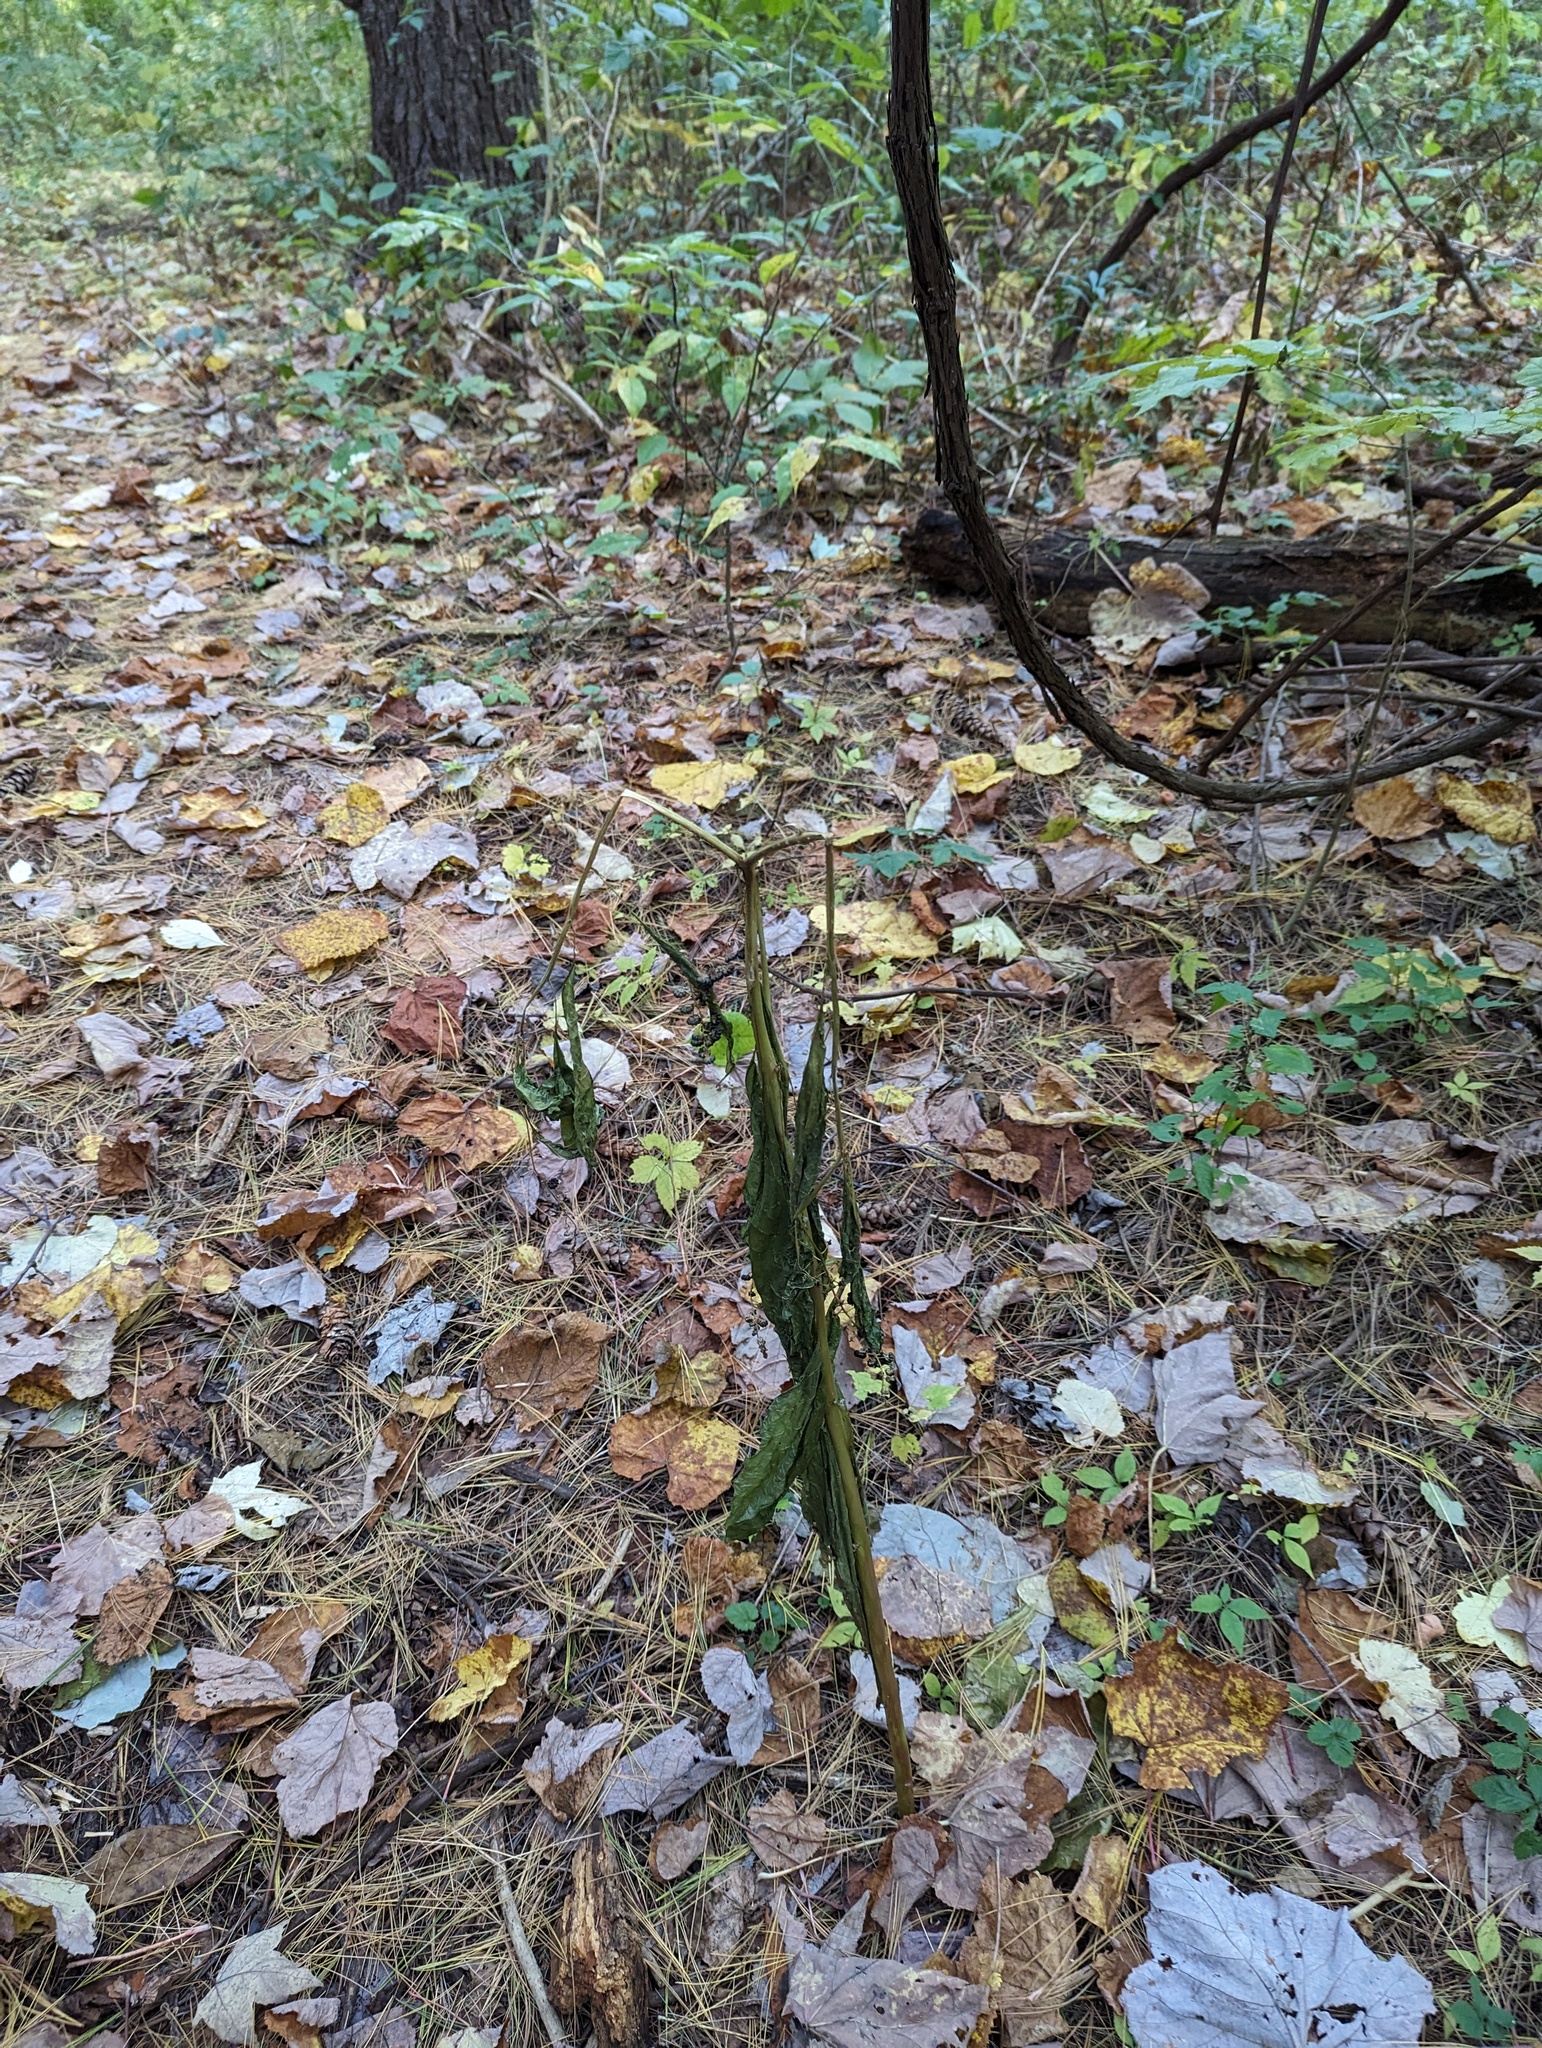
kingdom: Plantae
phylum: Tracheophyta
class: Magnoliopsida
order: Caryophyllales
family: Phytolaccaceae
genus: Phytolacca
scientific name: Phytolacca americana
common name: American pokeweed
